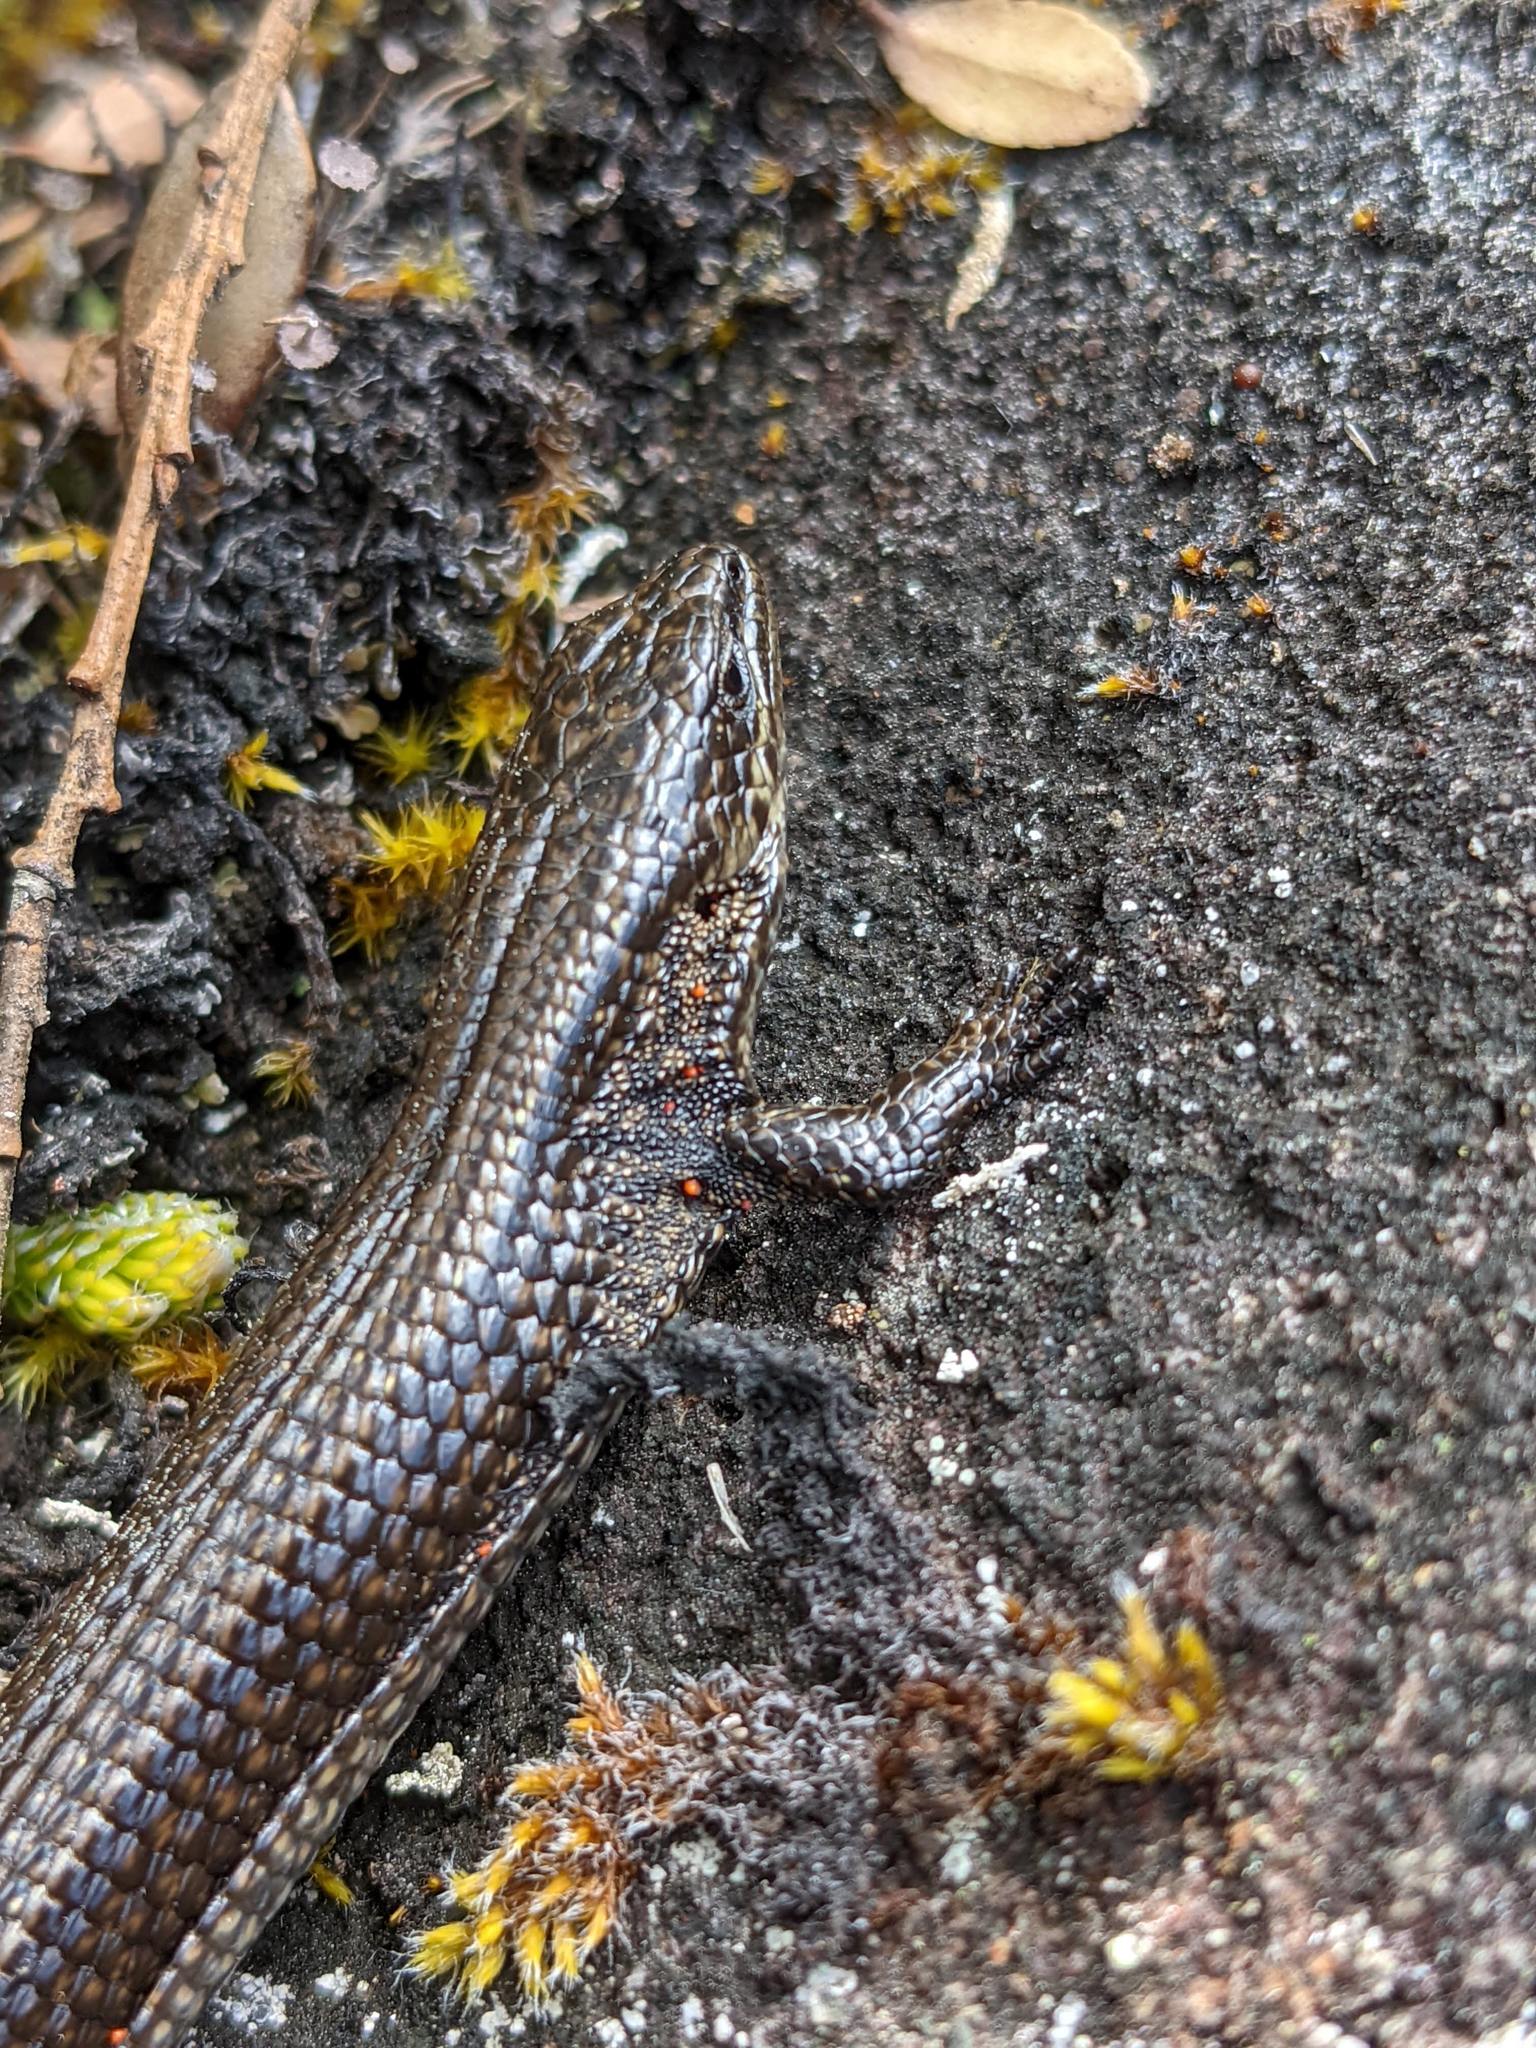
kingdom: Animalia
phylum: Chordata
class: Squamata
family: Anguidae
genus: Abronia
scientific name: Abronia monticola
